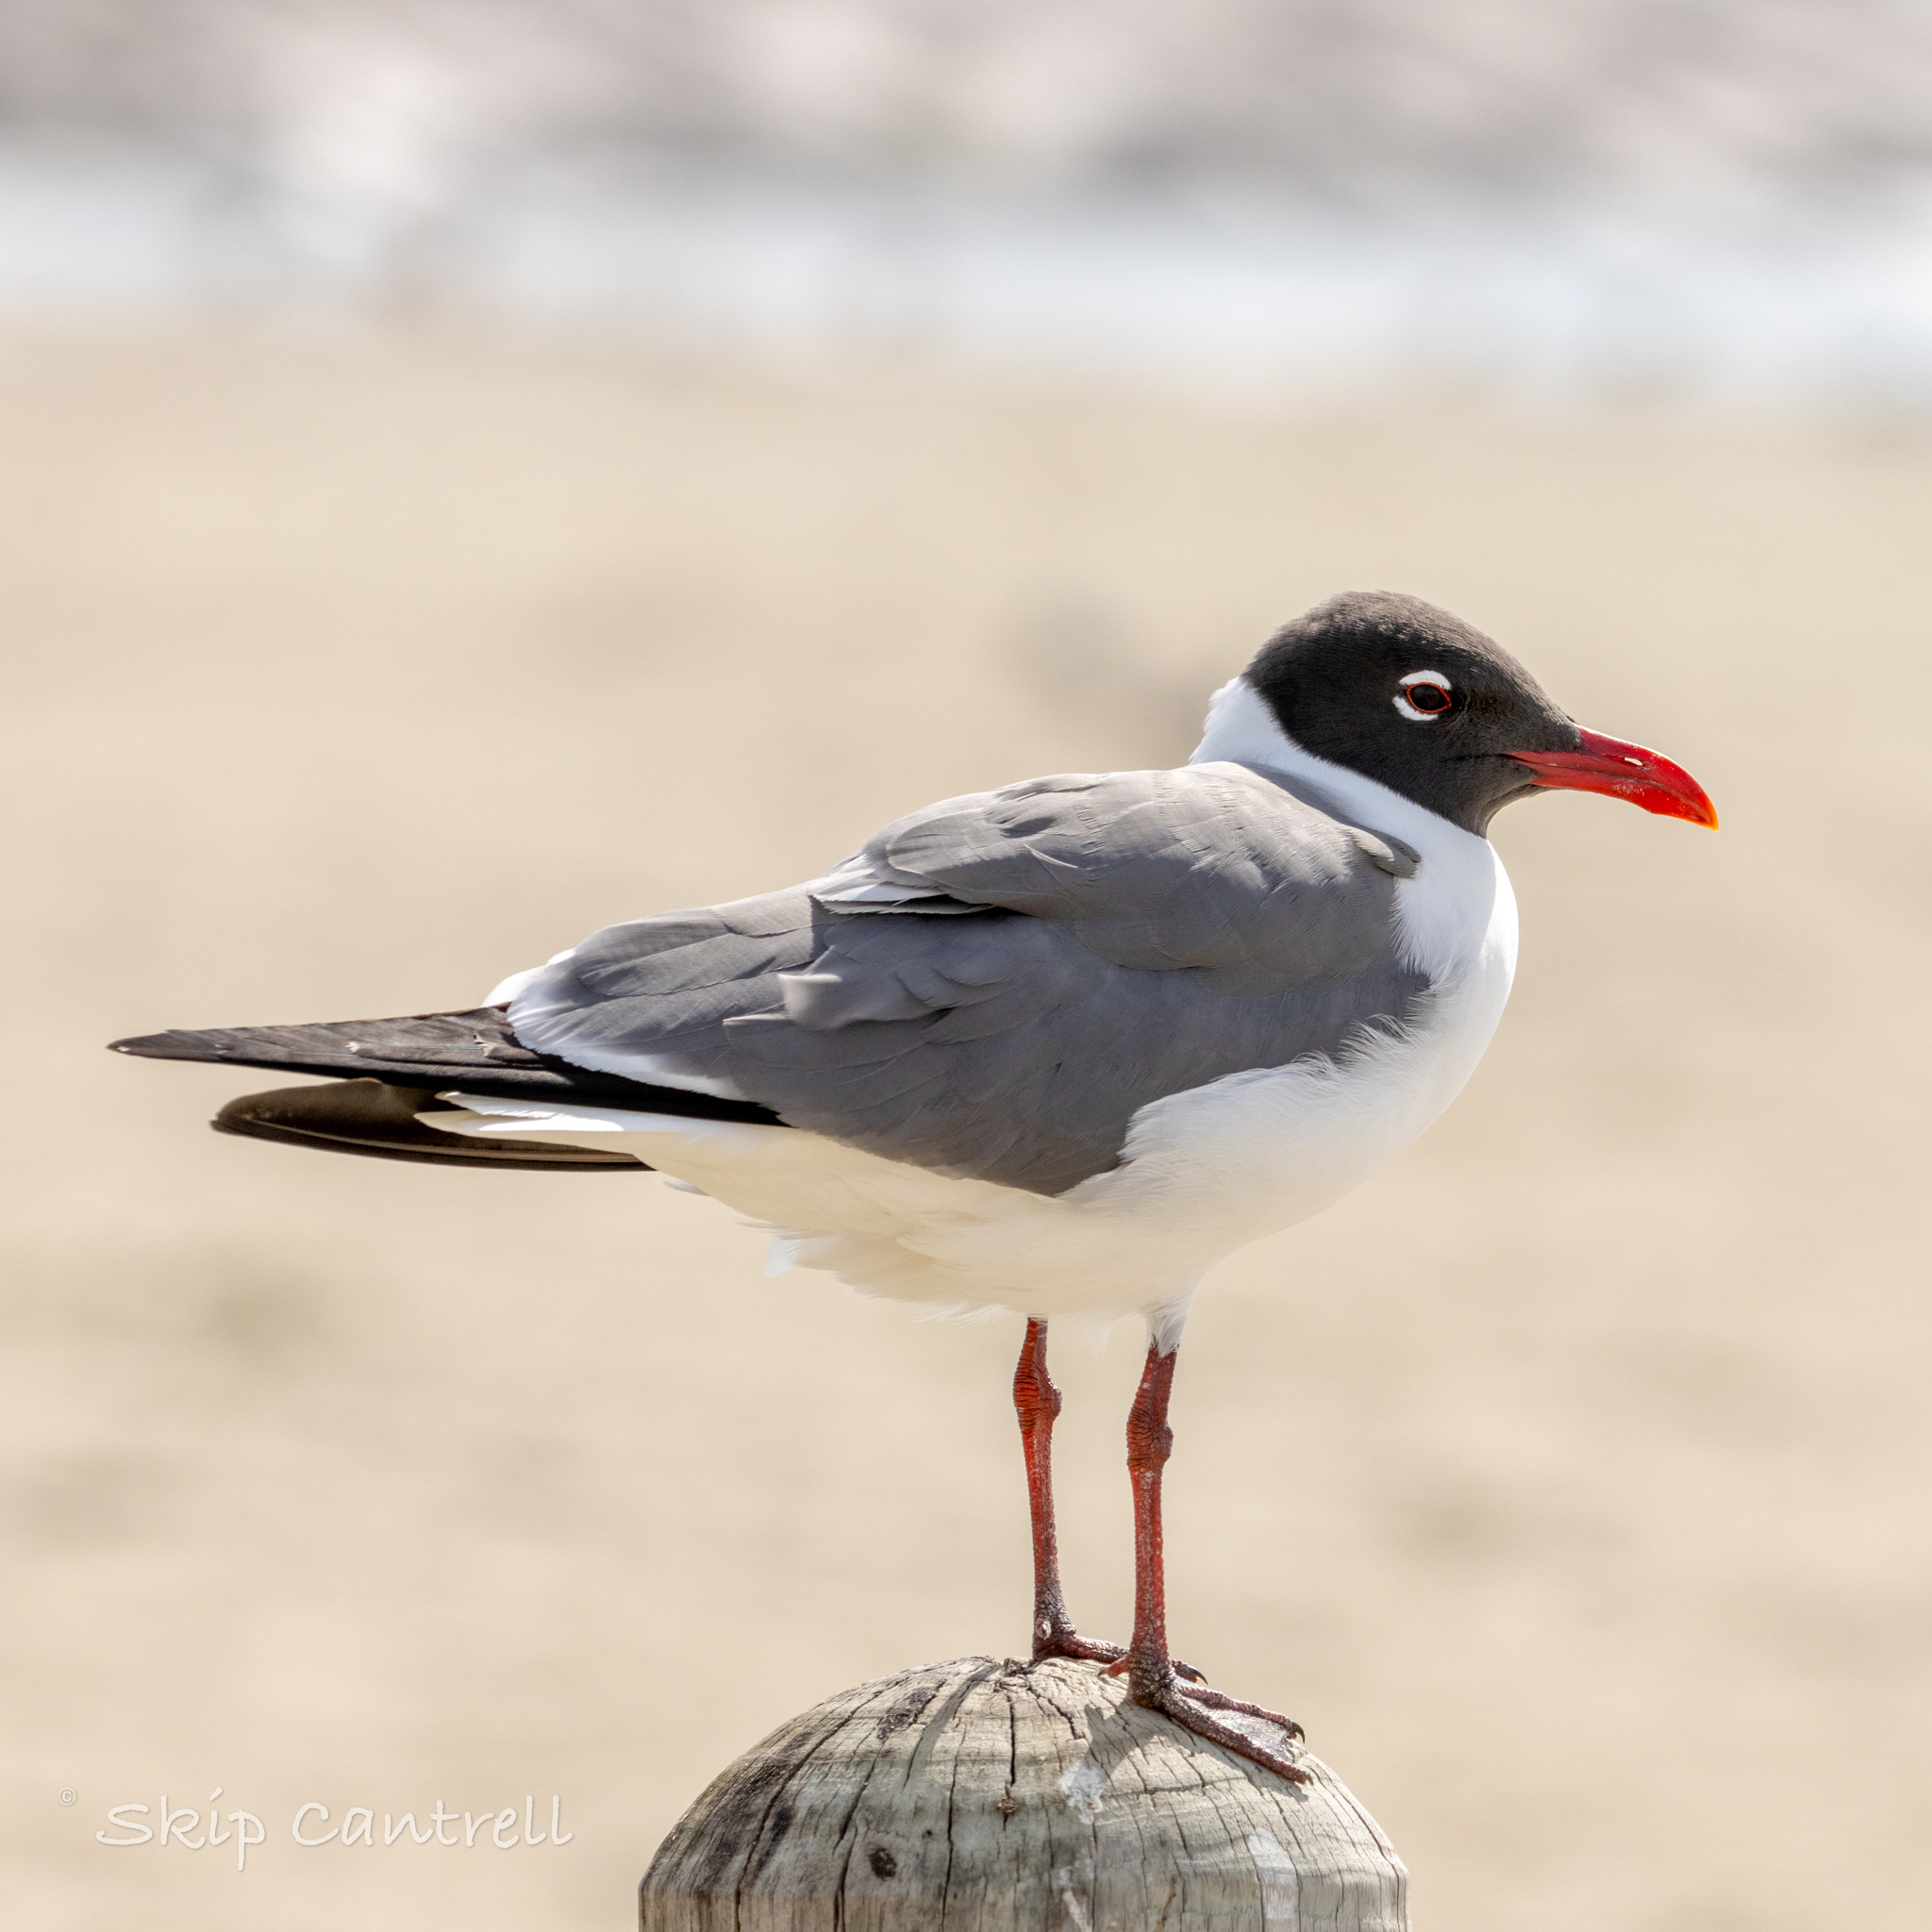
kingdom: Animalia
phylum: Chordata
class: Aves
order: Charadriiformes
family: Laridae
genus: Leucophaeus
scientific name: Leucophaeus atricilla
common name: Laughing gull
